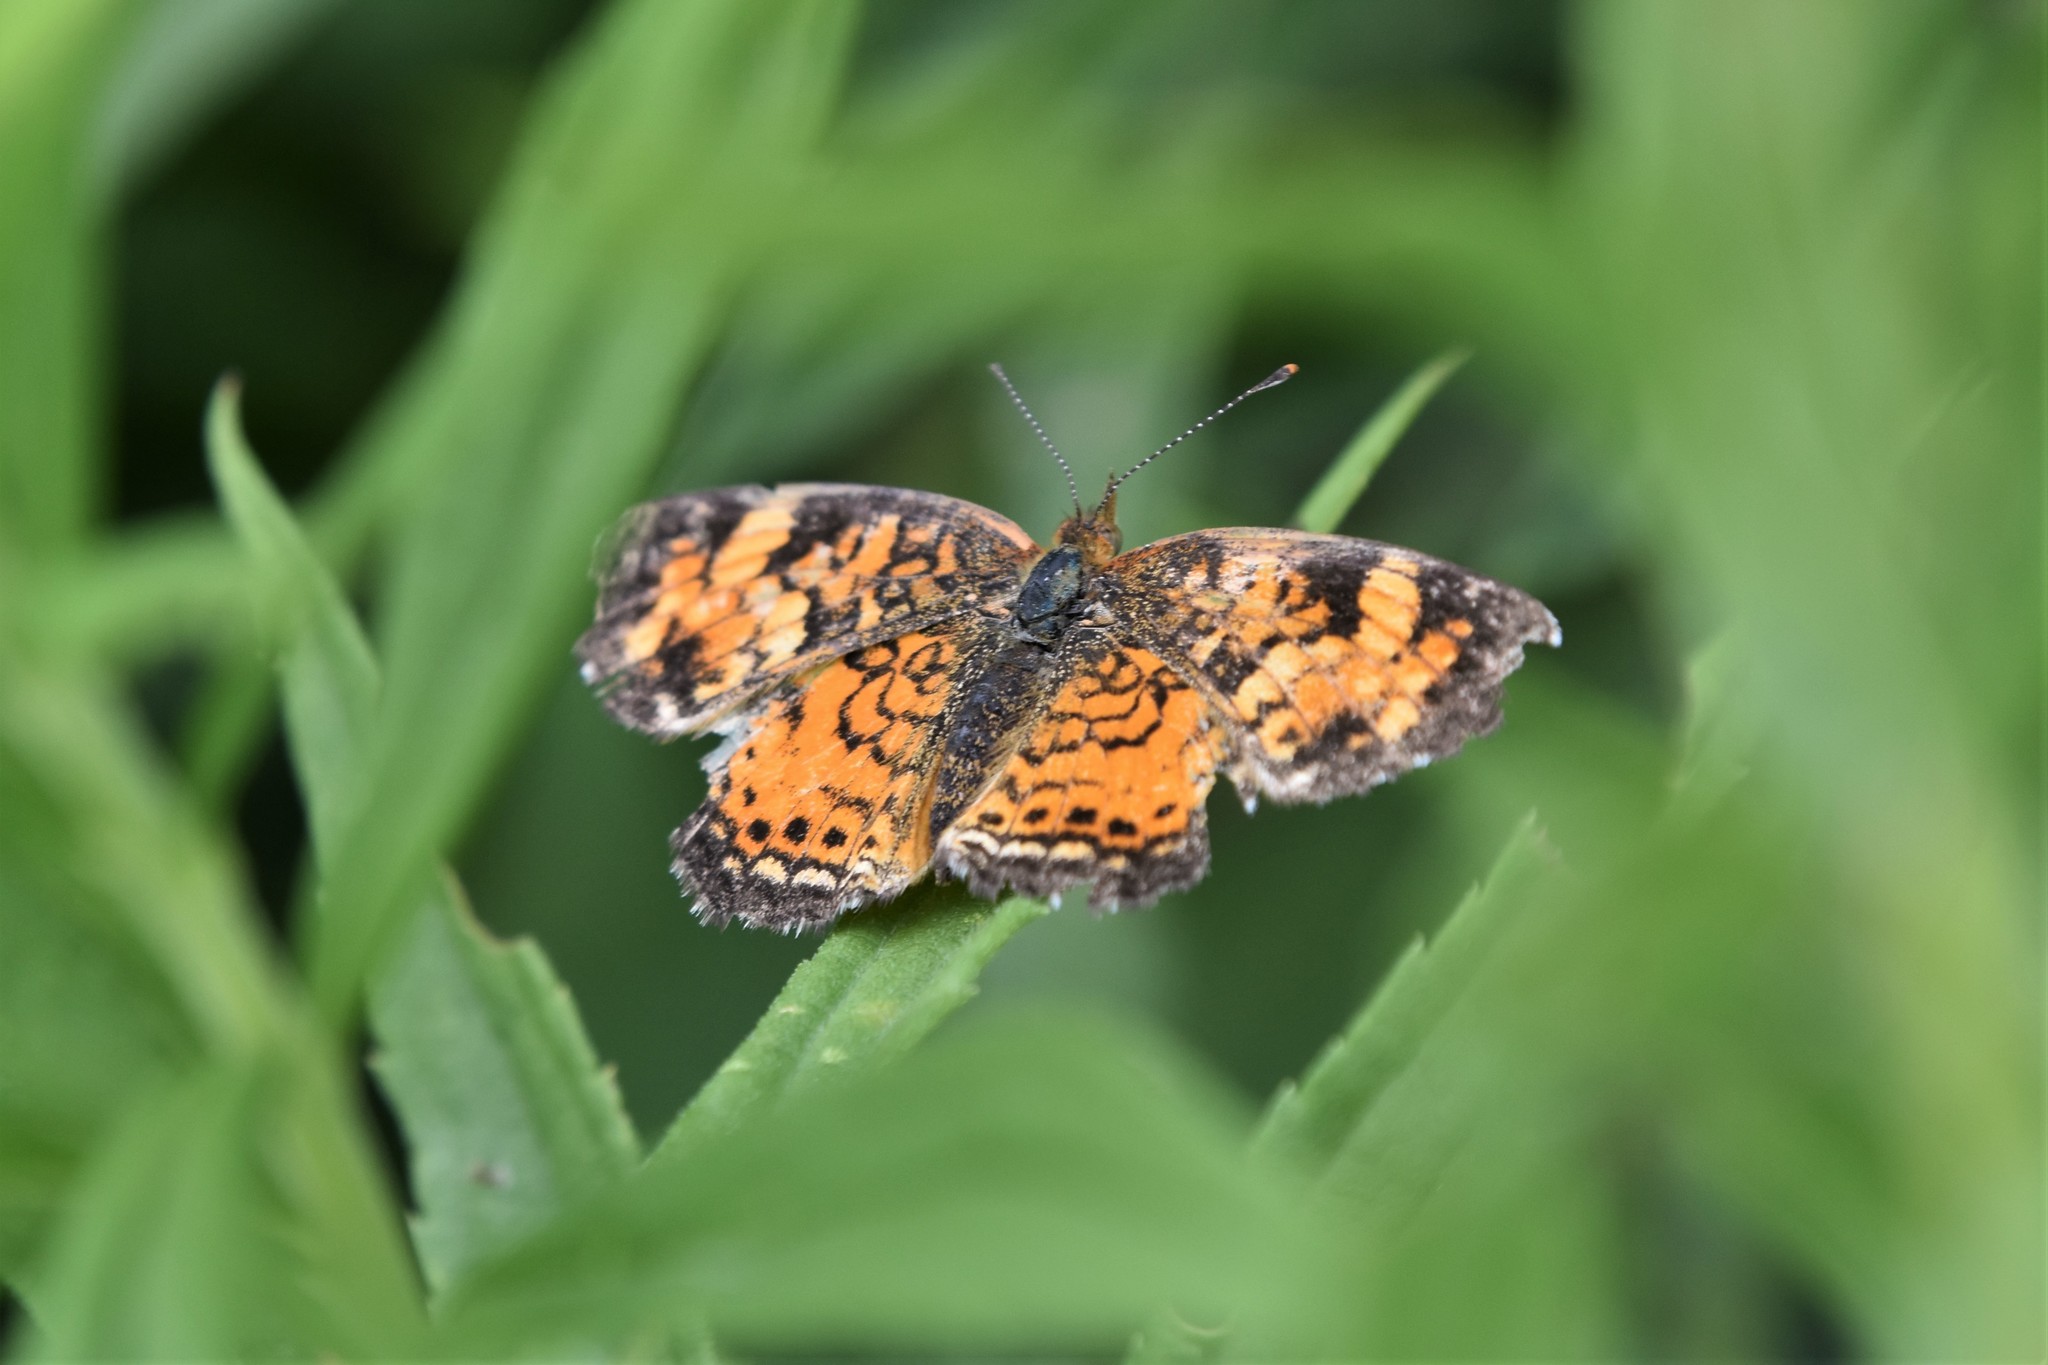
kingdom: Animalia
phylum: Arthropoda
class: Insecta
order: Lepidoptera
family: Nymphalidae
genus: Phyciodes
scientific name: Phyciodes tharos
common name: Pearl crescent
